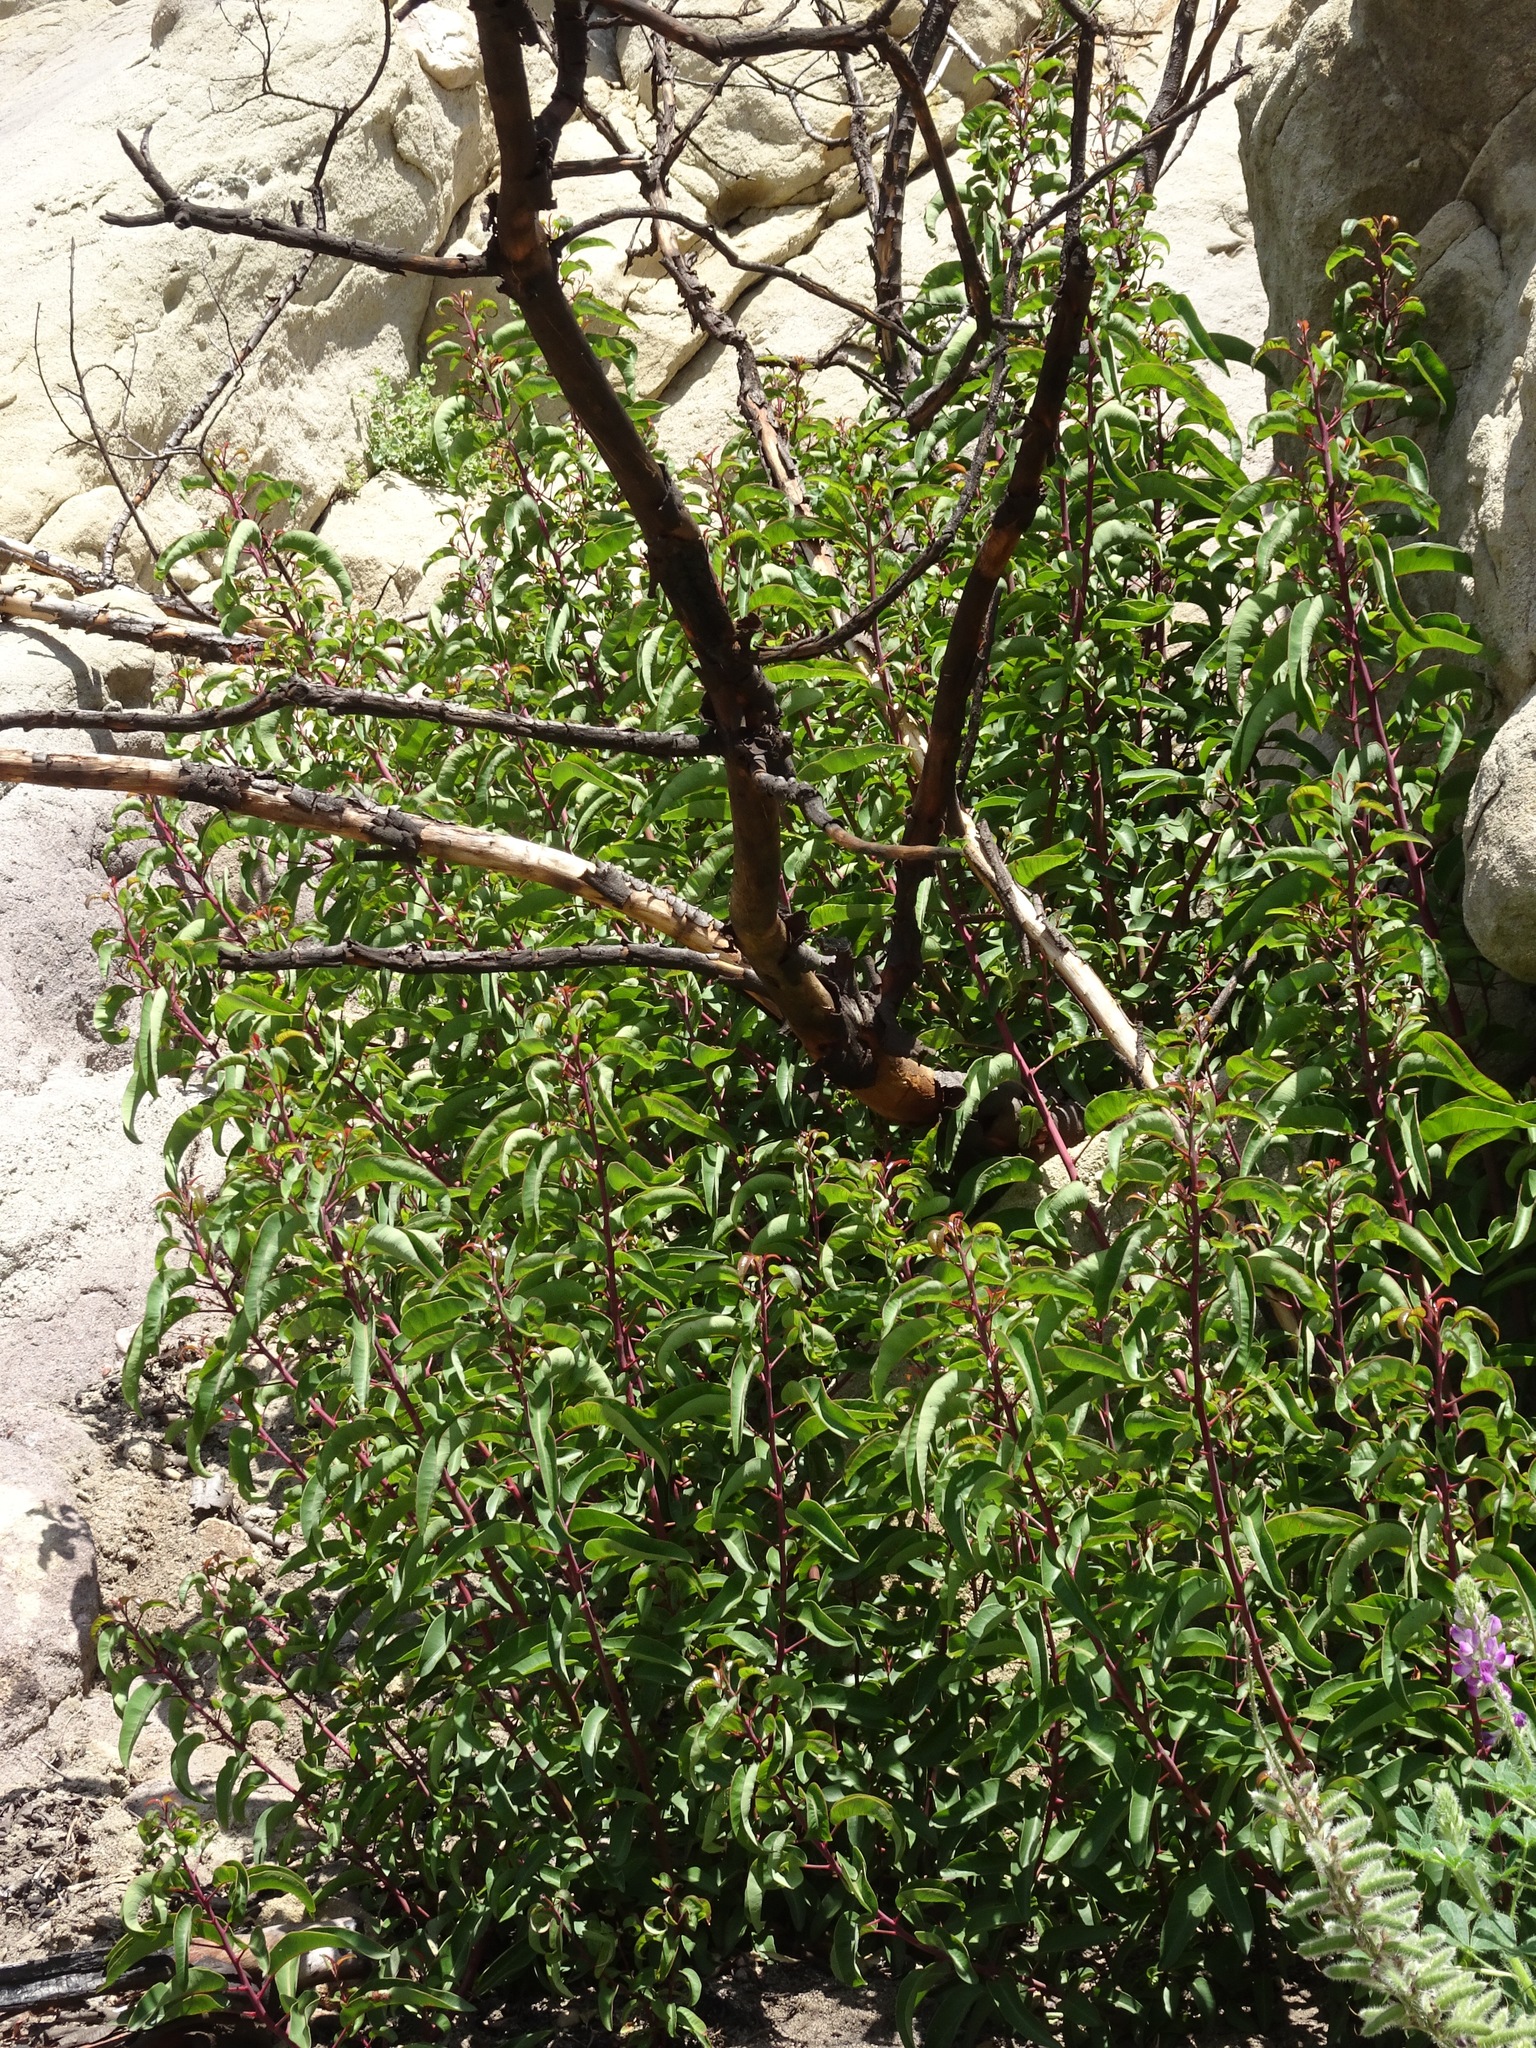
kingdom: Plantae
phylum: Tracheophyta
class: Magnoliopsida
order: Sapindales
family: Anacardiaceae
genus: Malosma
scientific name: Malosma laurina
